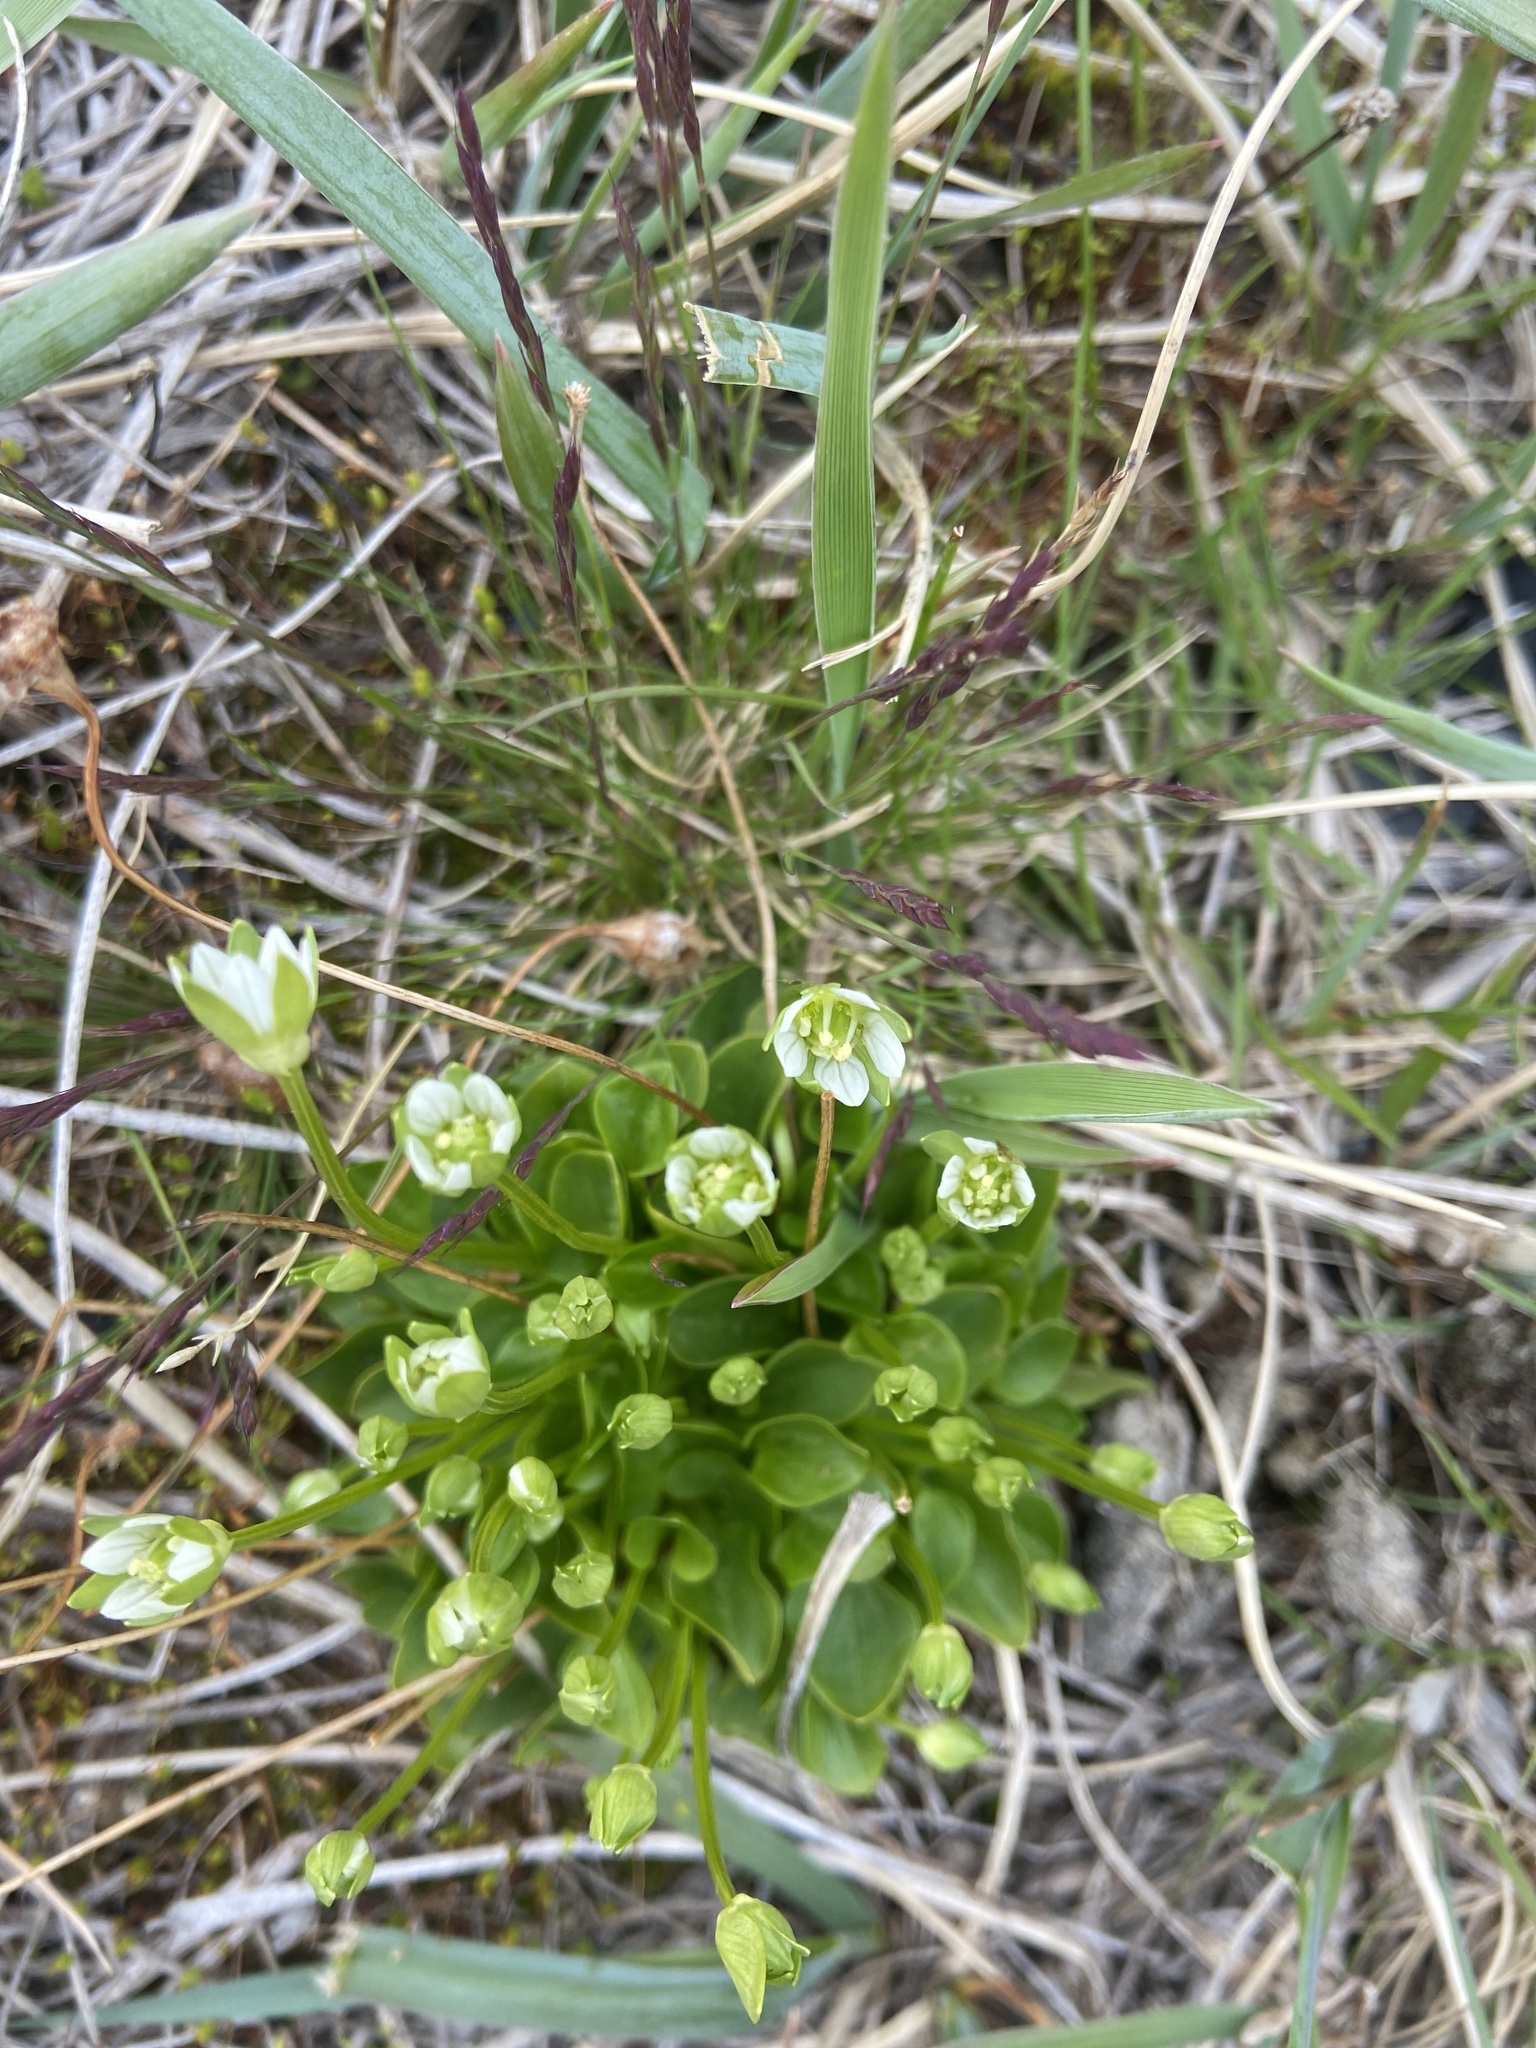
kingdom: Plantae
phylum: Tracheophyta
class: Magnoliopsida
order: Celastrales
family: Parnassiaceae
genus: Parnassia
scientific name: Parnassia kotzebuei
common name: Kotzebue's grass-of-parnassus
